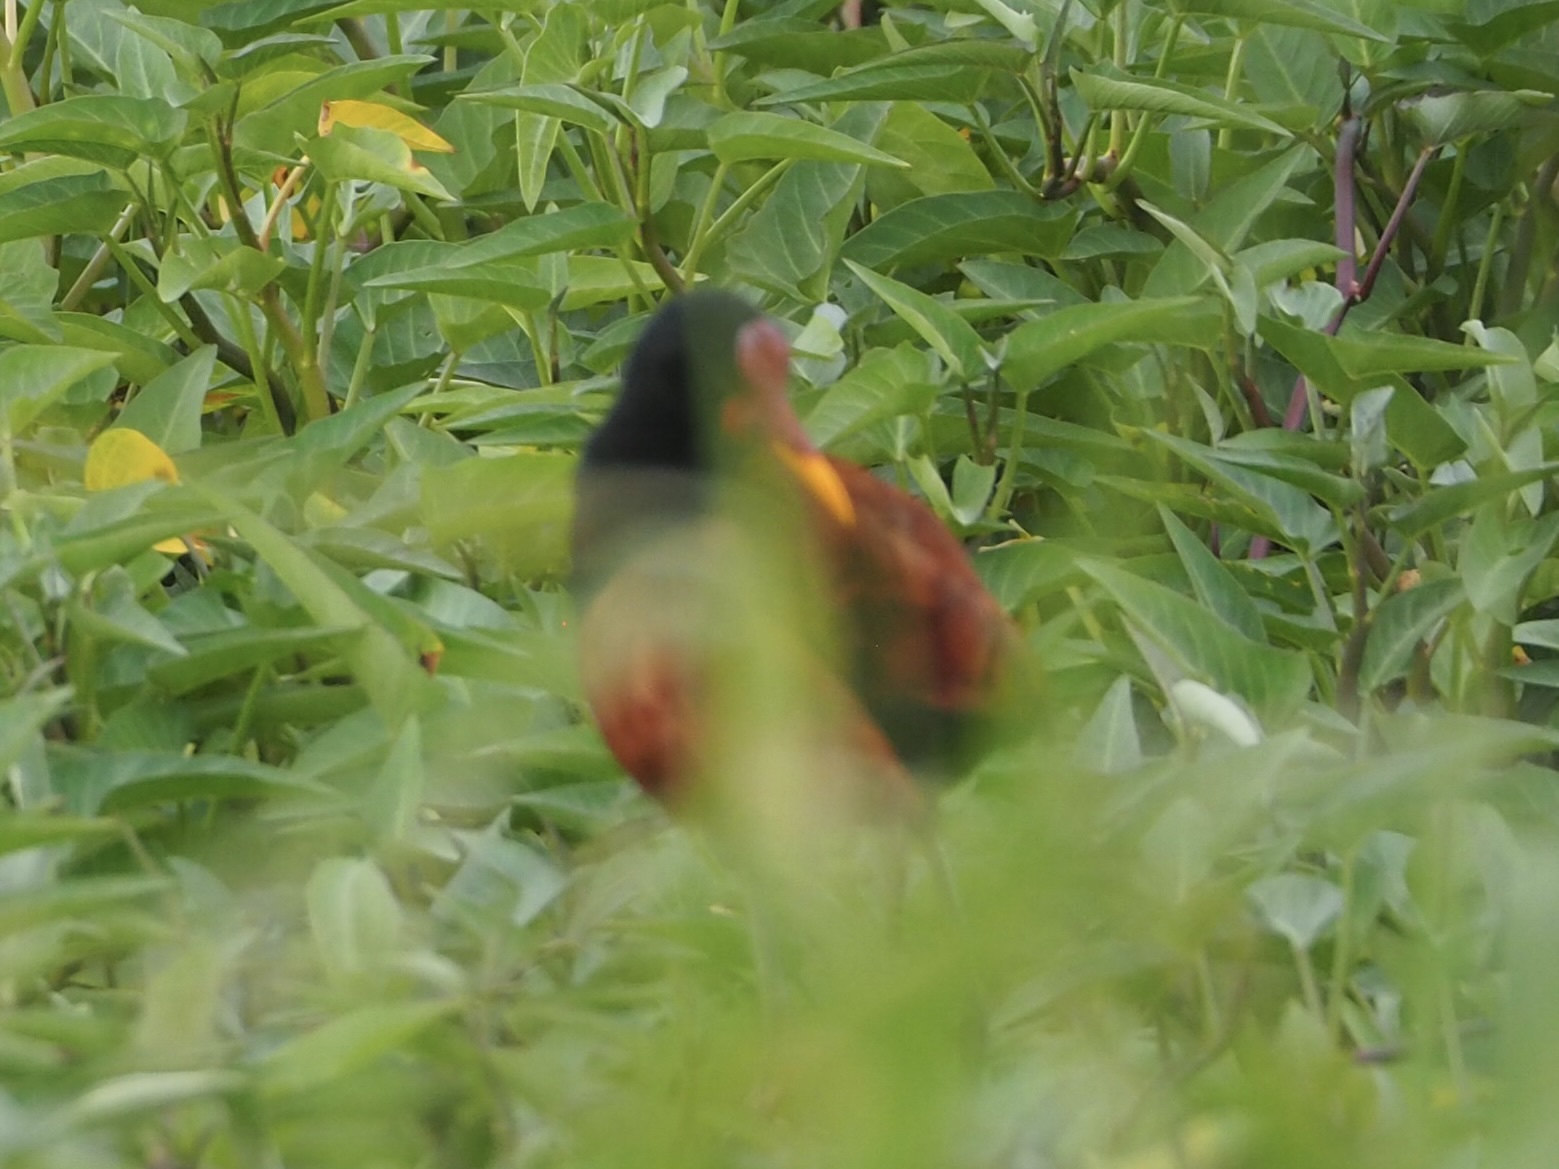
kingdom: Animalia
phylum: Chordata
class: Aves
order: Charadriiformes
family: Jacanidae
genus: Jacana
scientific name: Jacana jacana
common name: Wattled jacana
